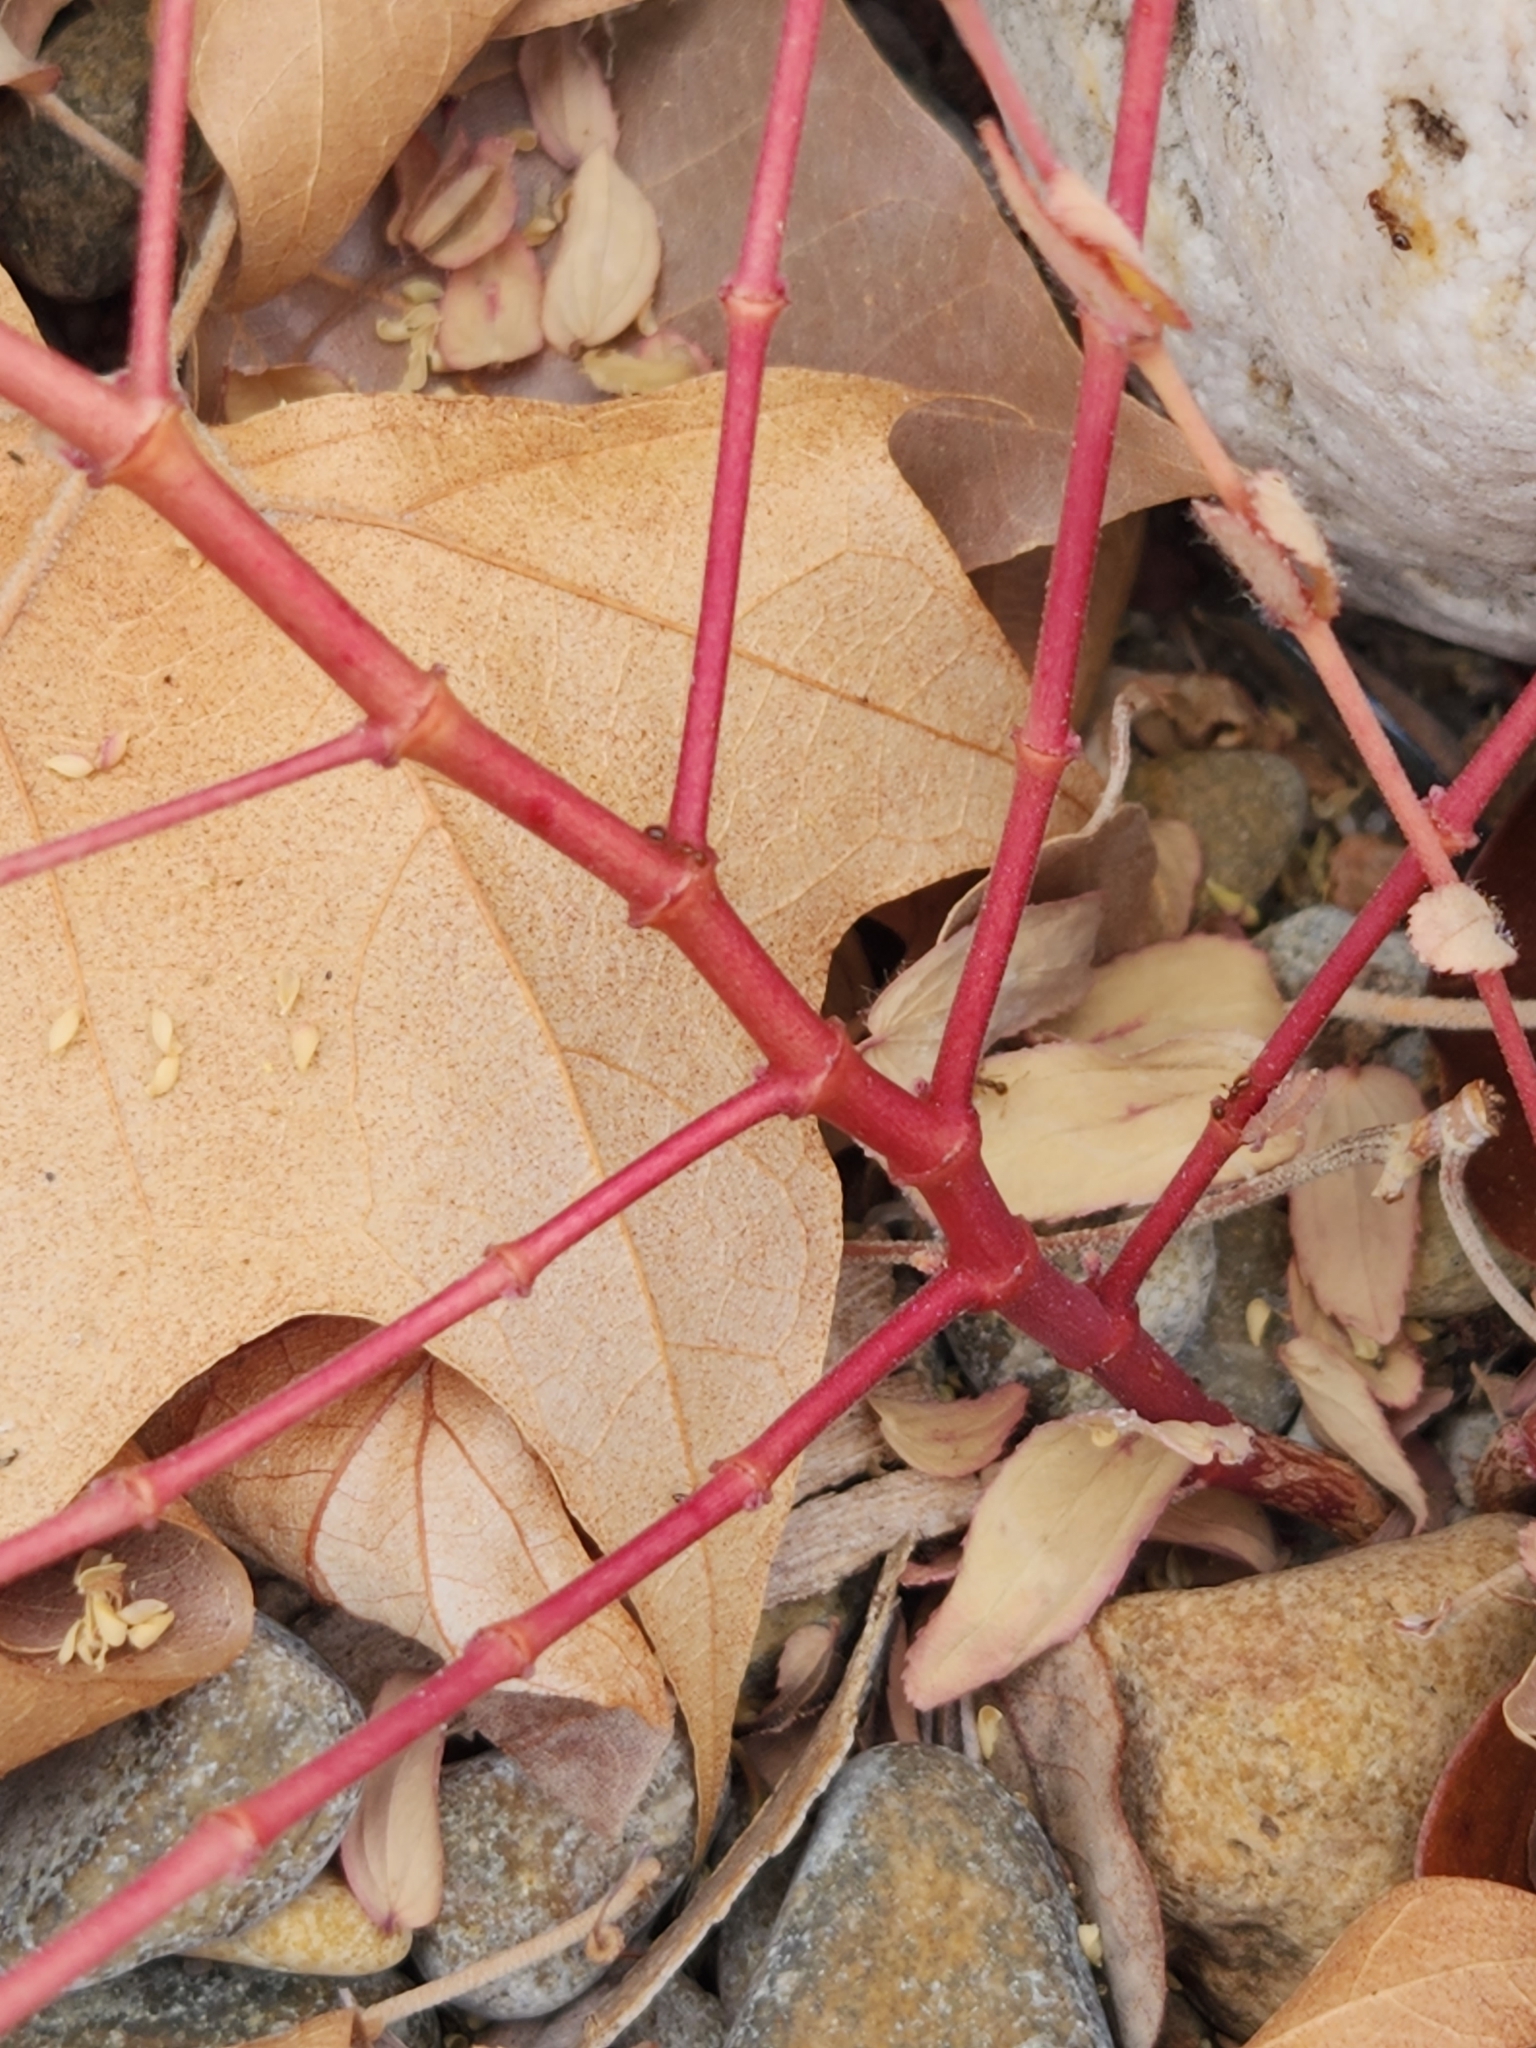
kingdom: Plantae
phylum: Tracheophyta
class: Magnoliopsida
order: Malpighiales
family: Euphorbiaceae
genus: Euphorbia
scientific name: Euphorbia nutans
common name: Eyebane
